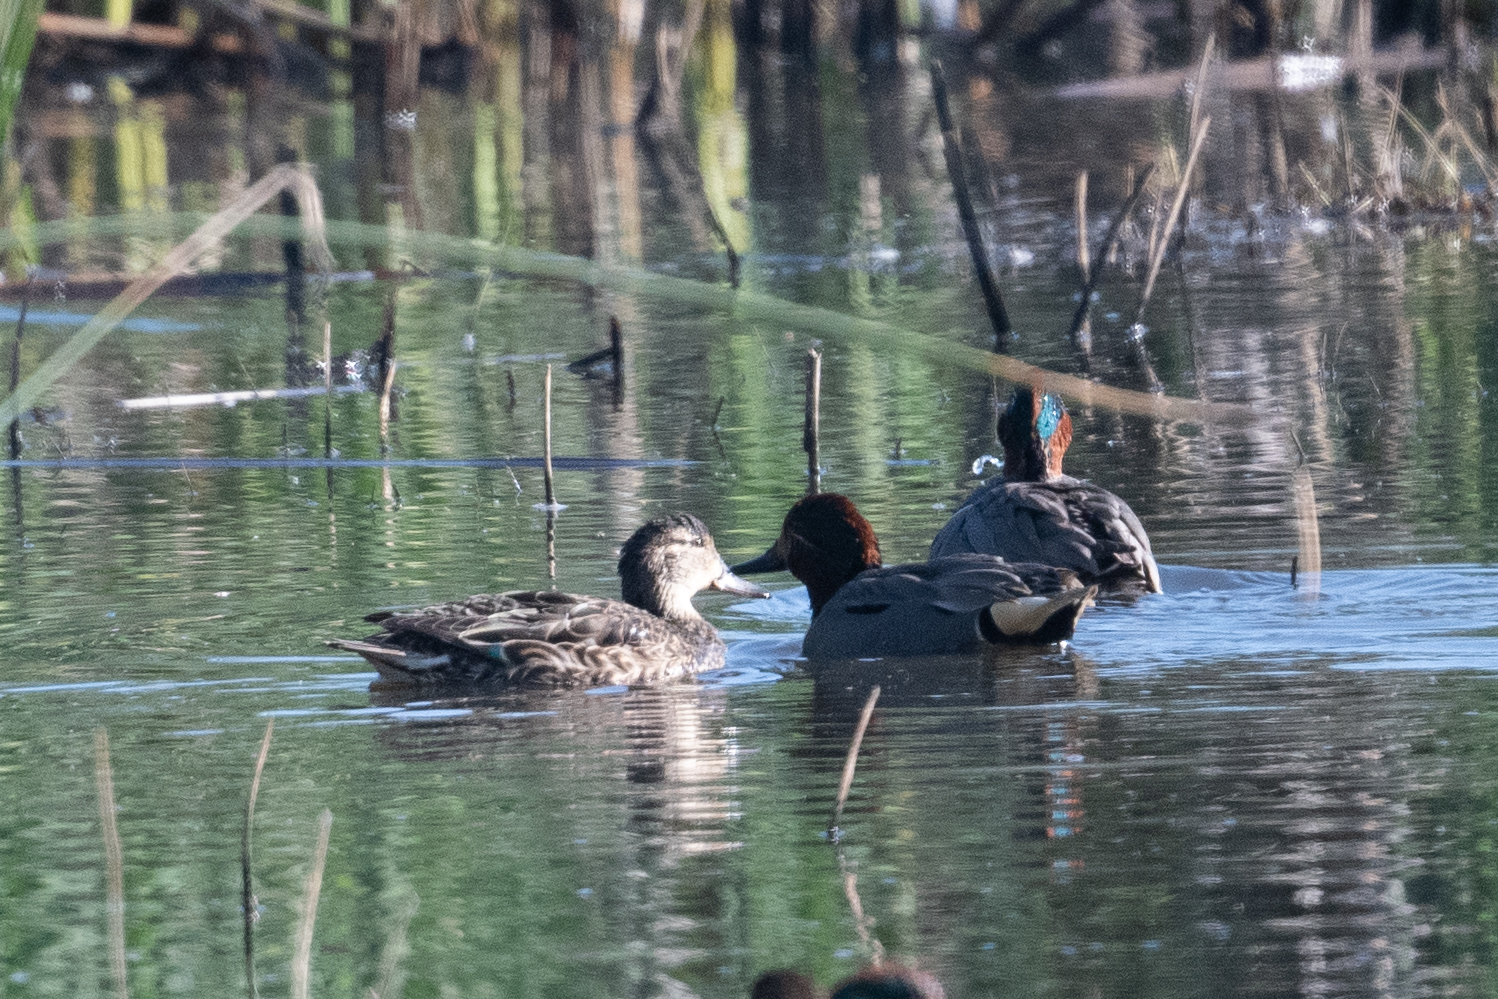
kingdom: Animalia
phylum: Chordata
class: Aves
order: Anseriformes
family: Anatidae
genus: Anas
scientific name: Anas crecca
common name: Eurasian teal
